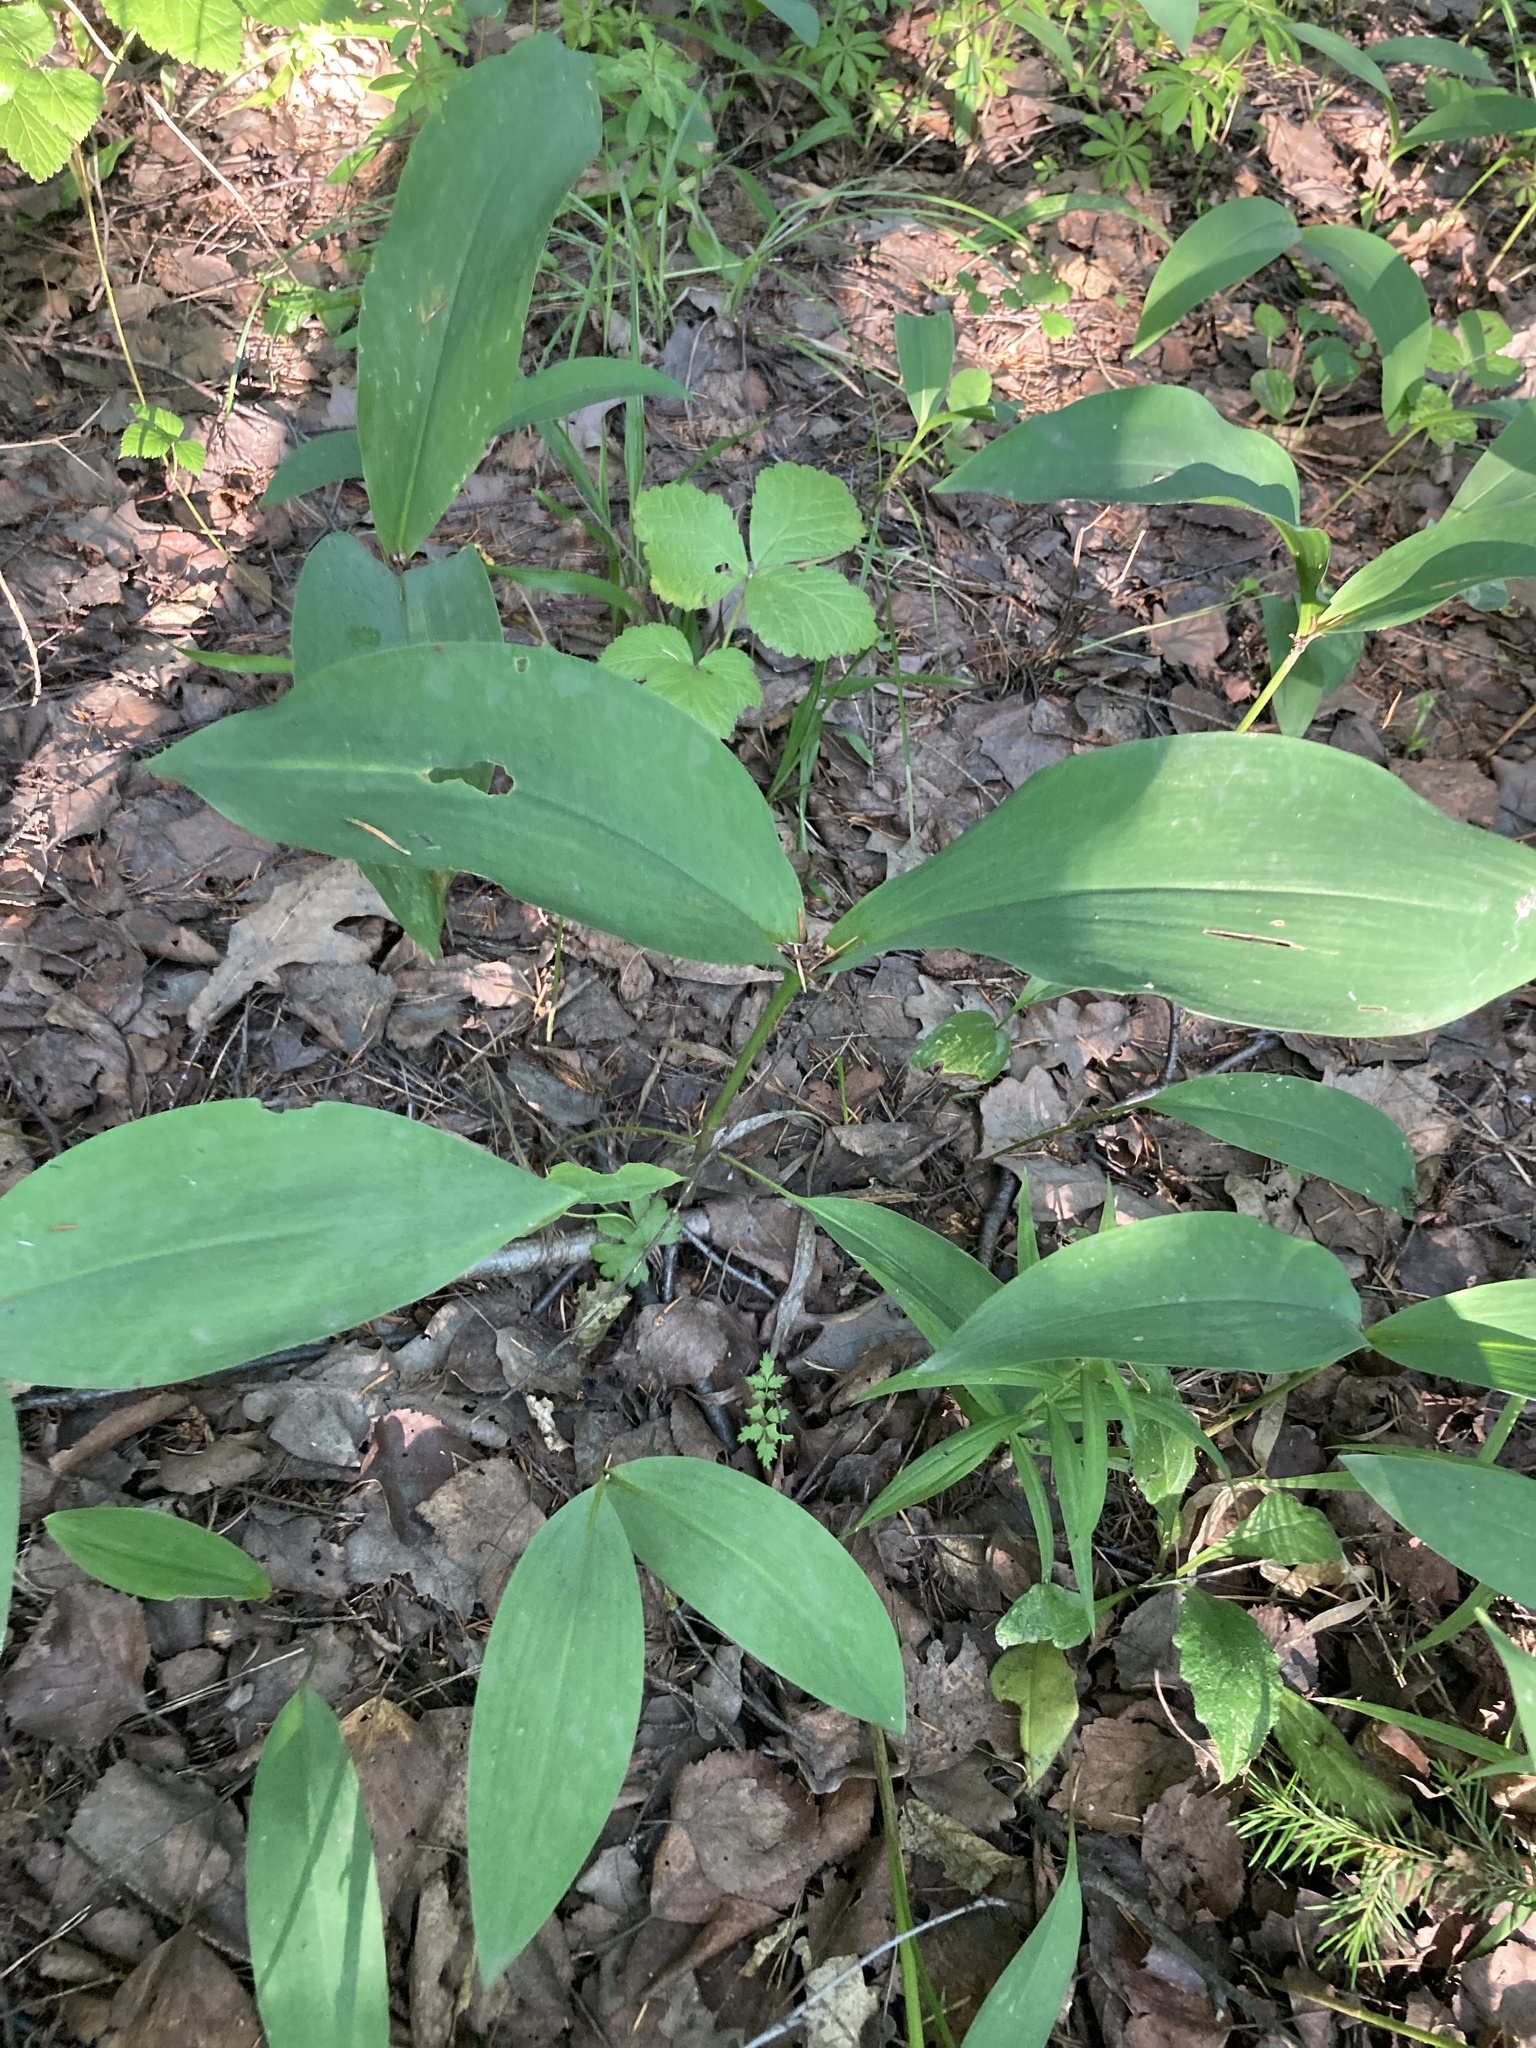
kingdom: Plantae
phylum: Tracheophyta
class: Liliopsida
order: Asparagales
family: Asparagaceae
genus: Convallaria
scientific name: Convallaria majalis
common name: Lily-of-the-valley
